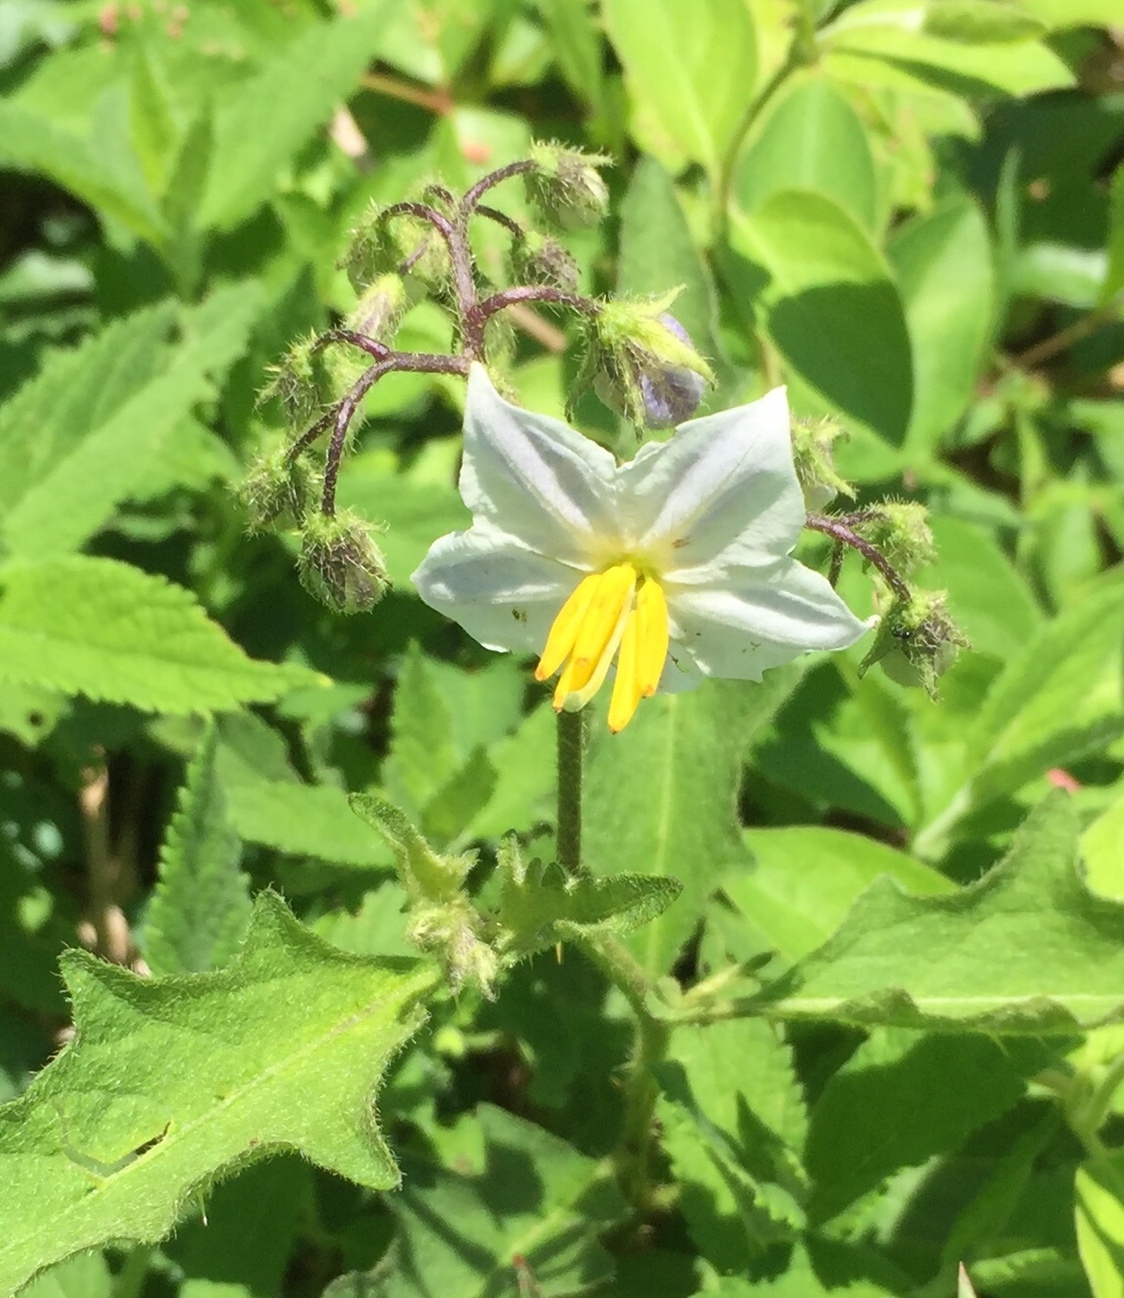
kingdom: Plantae
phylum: Tracheophyta
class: Magnoliopsida
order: Solanales
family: Solanaceae
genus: Solanum
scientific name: Solanum carolinense
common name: Horse-nettle
